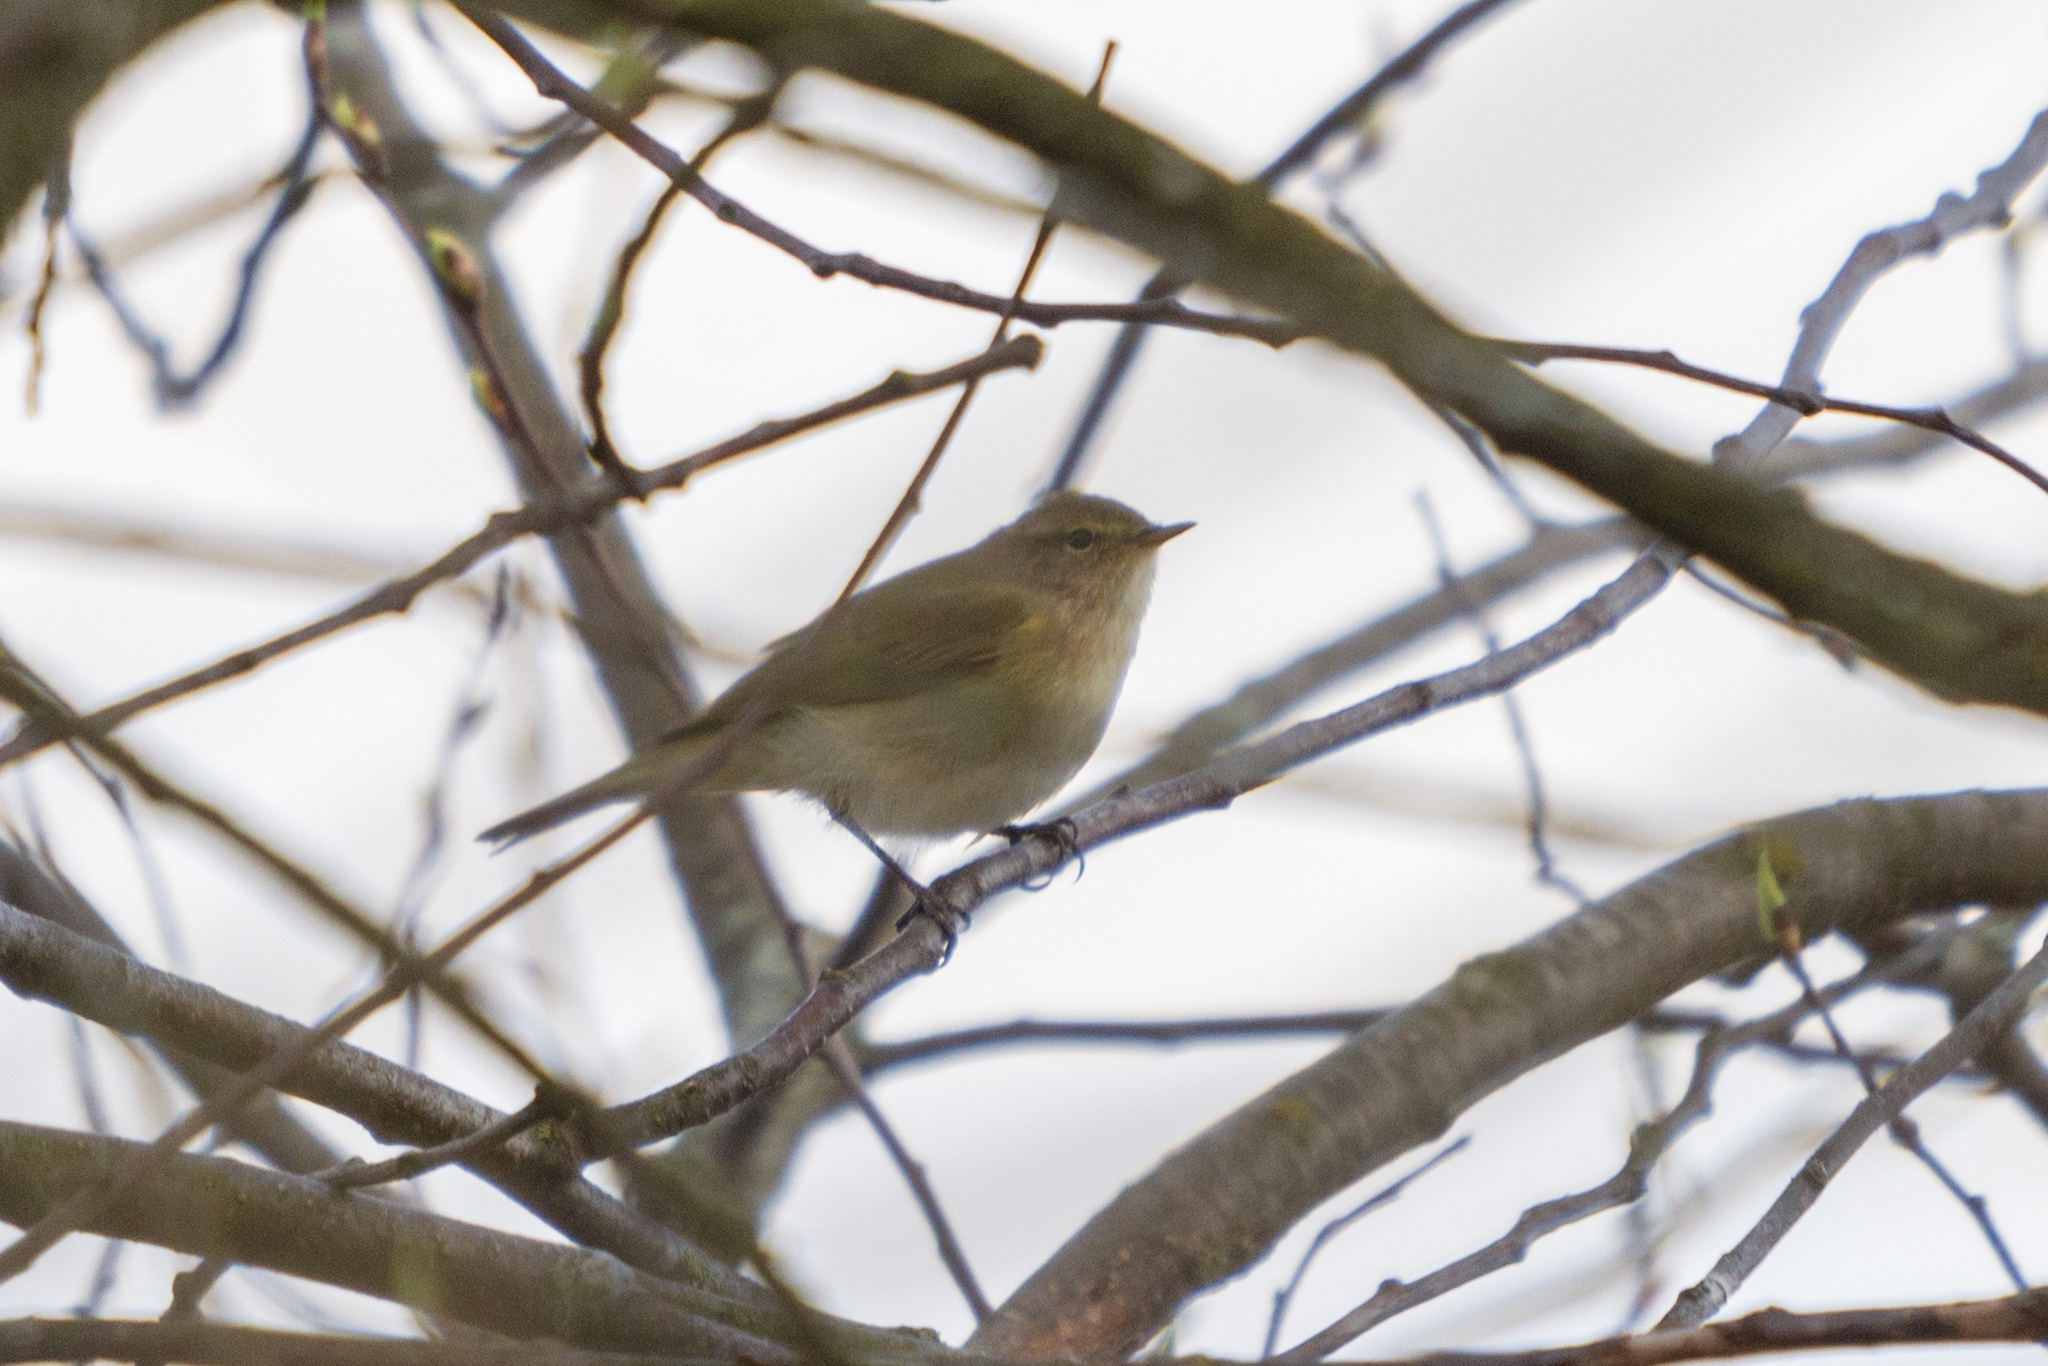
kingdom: Animalia
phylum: Chordata
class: Aves
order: Passeriformes
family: Phylloscopidae
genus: Phylloscopus
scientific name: Phylloscopus collybita
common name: Common chiffchaff
